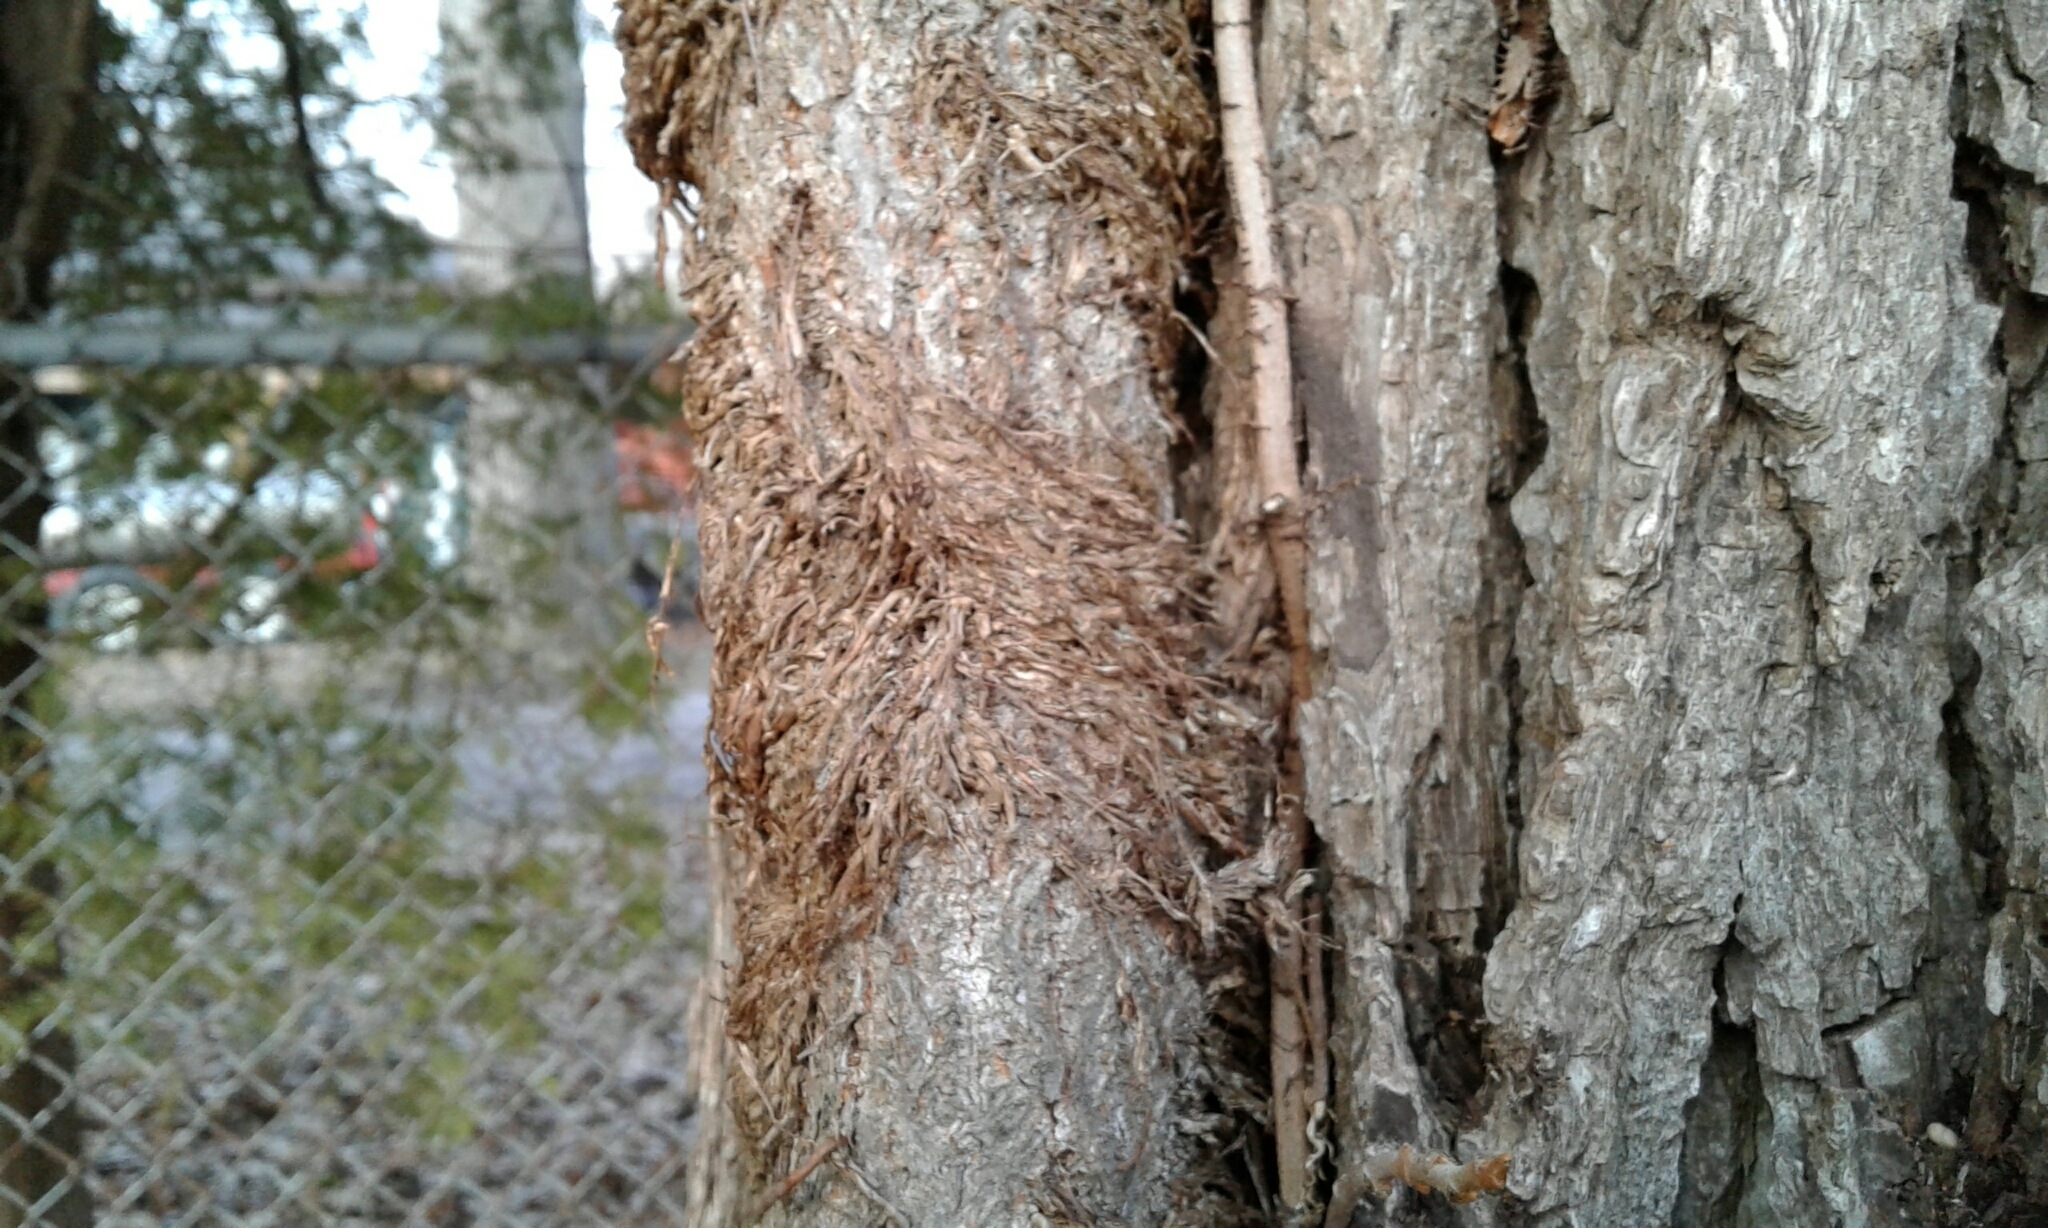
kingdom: Plantae
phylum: Tracheophyta
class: Magnoliopsida
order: Sapindales
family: Anacardiaceae
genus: Toxicodendron
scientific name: Toxicodendron radicans
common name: Poison ivy
